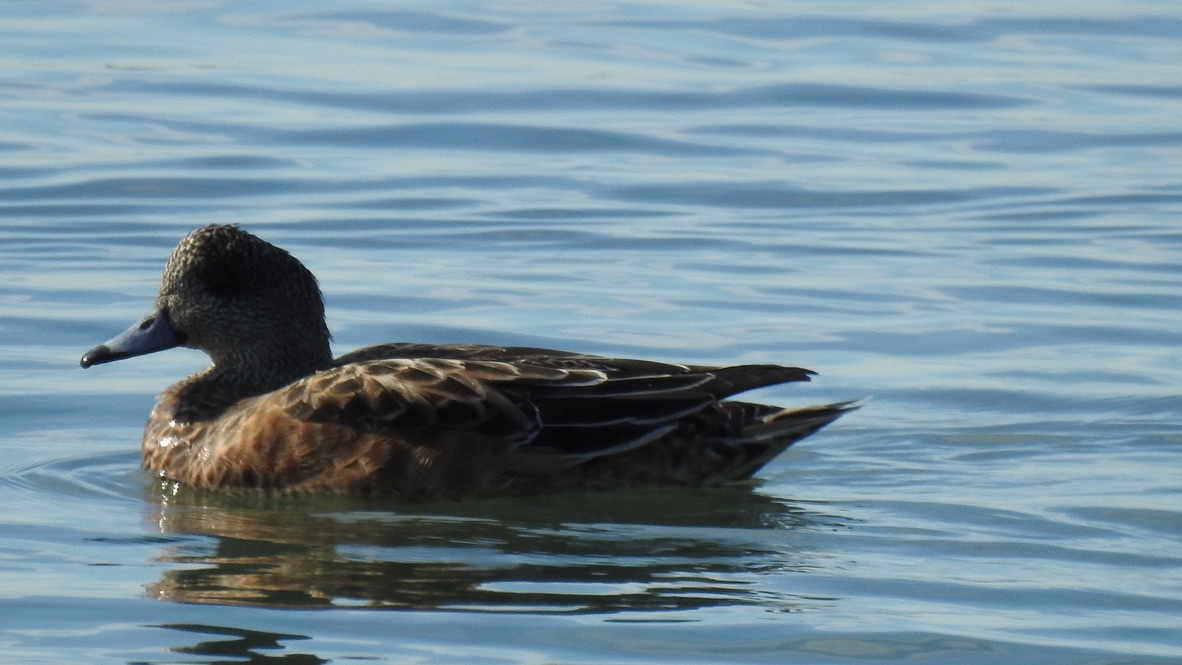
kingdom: Animalia
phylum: Chordata
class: Aves
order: Anseriformes
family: Anatidae
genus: Mareca
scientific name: Mareca americana
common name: American wigeon
